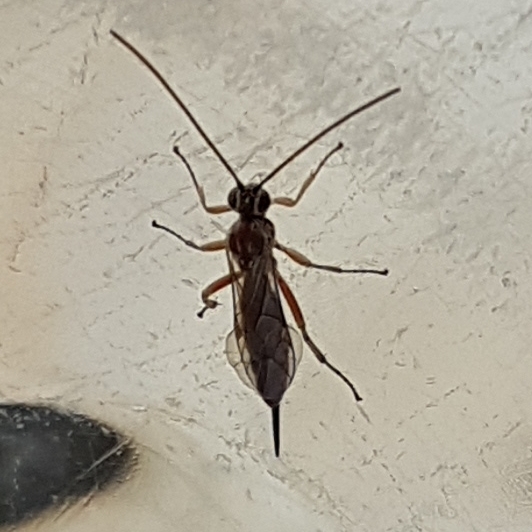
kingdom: Animalia
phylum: Arthropoda
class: Insecta
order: Hymenoptera
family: Ichneumonidae
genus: Tromatobia
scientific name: Tromatobia lineatoria
